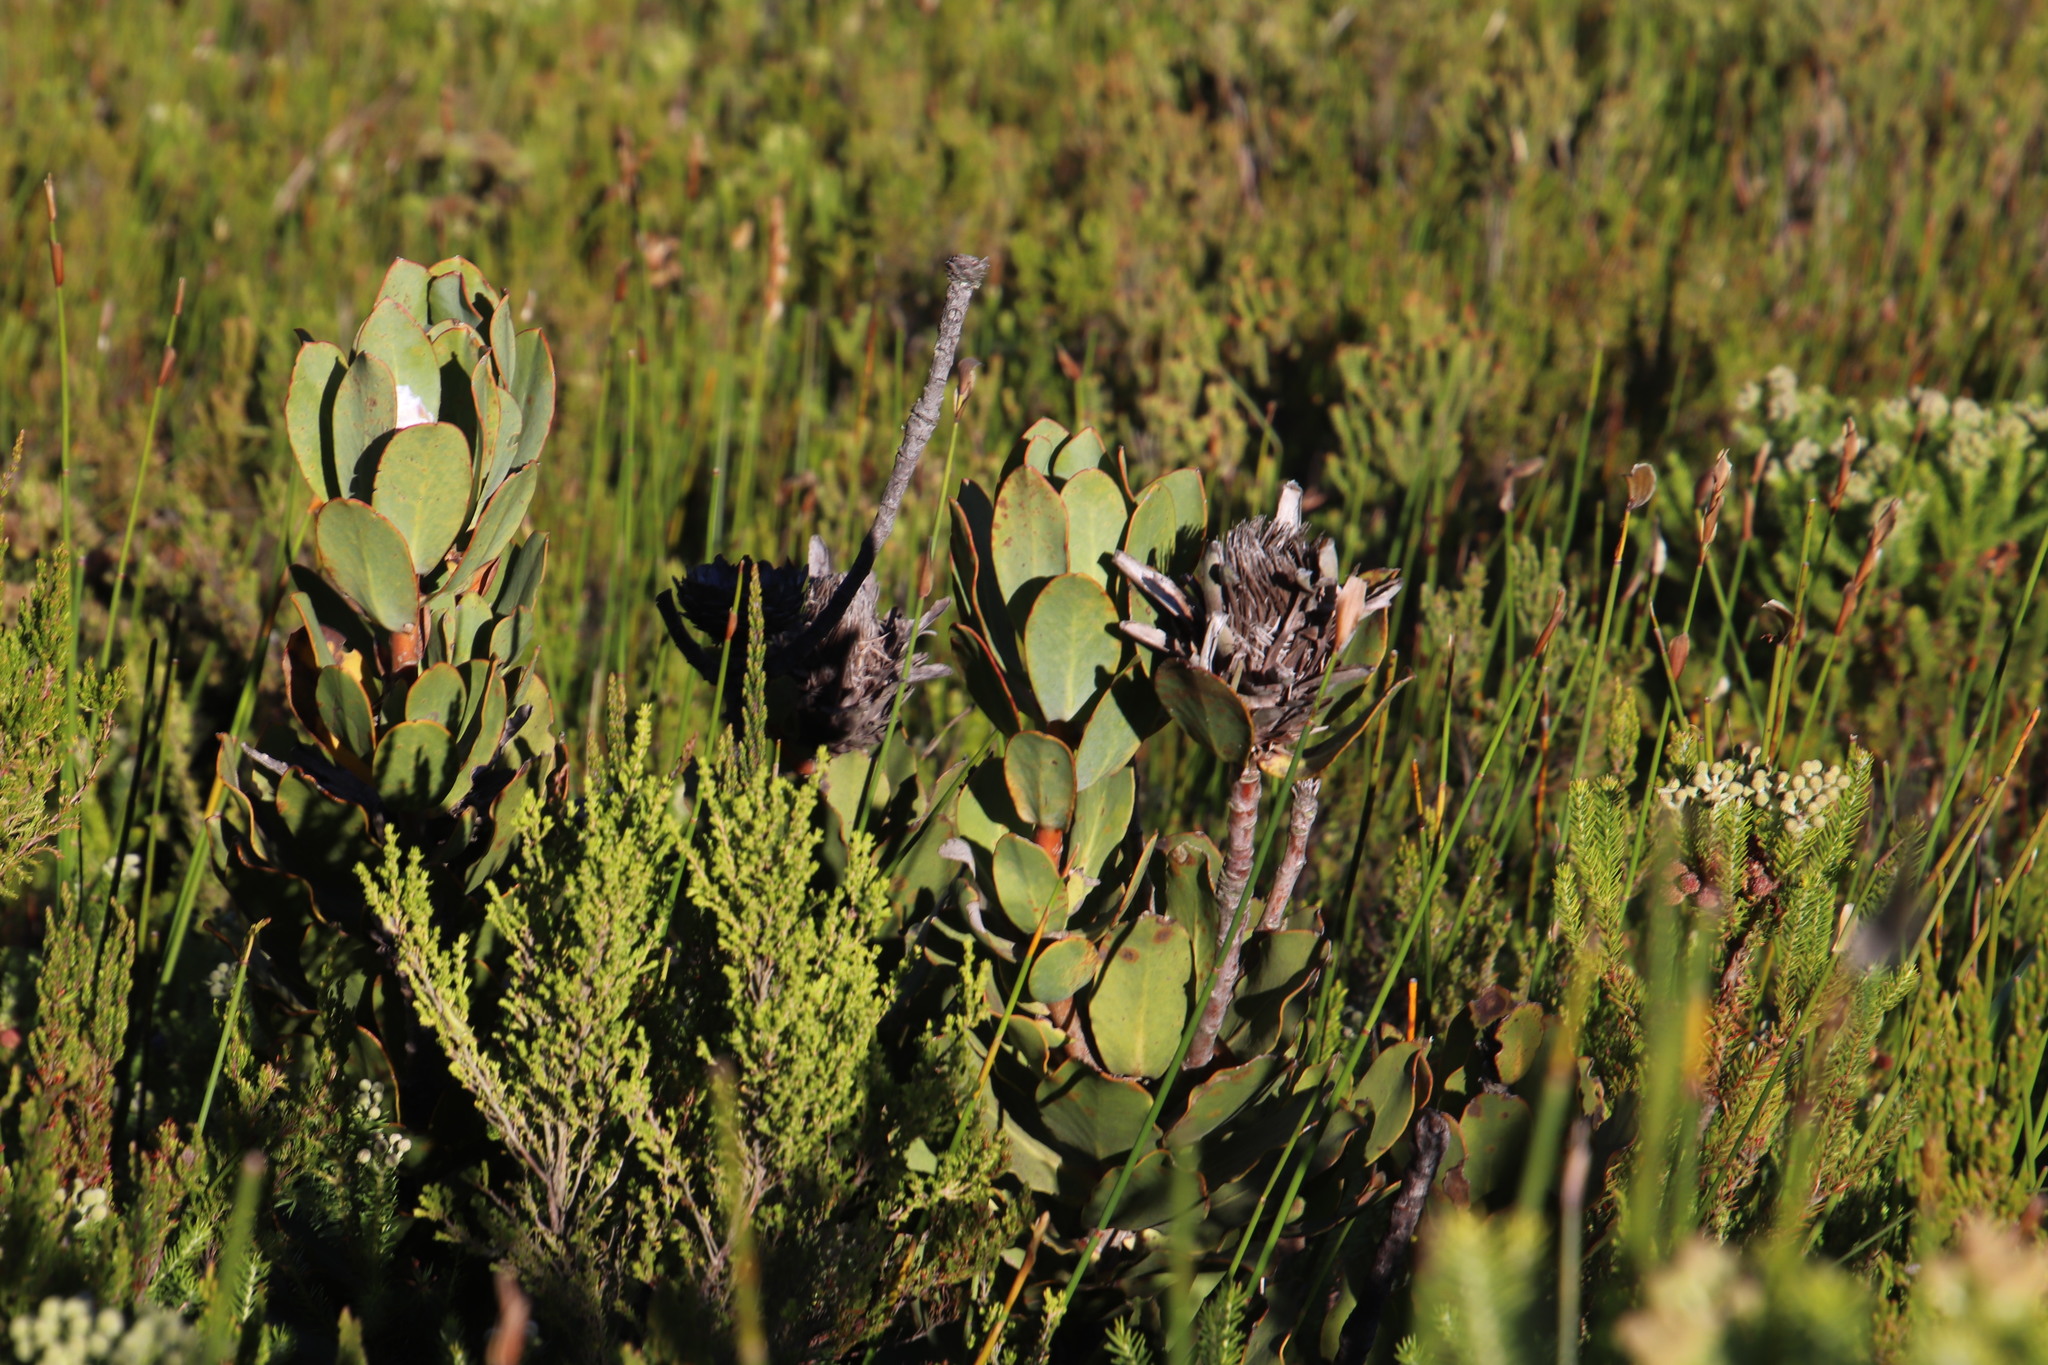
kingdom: Plantae
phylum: Tracheophyta
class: Magnoliopsida
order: Proteales
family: Proteaceae
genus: Protea
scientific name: Protea speciosa
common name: Brown-beard sugarbush
